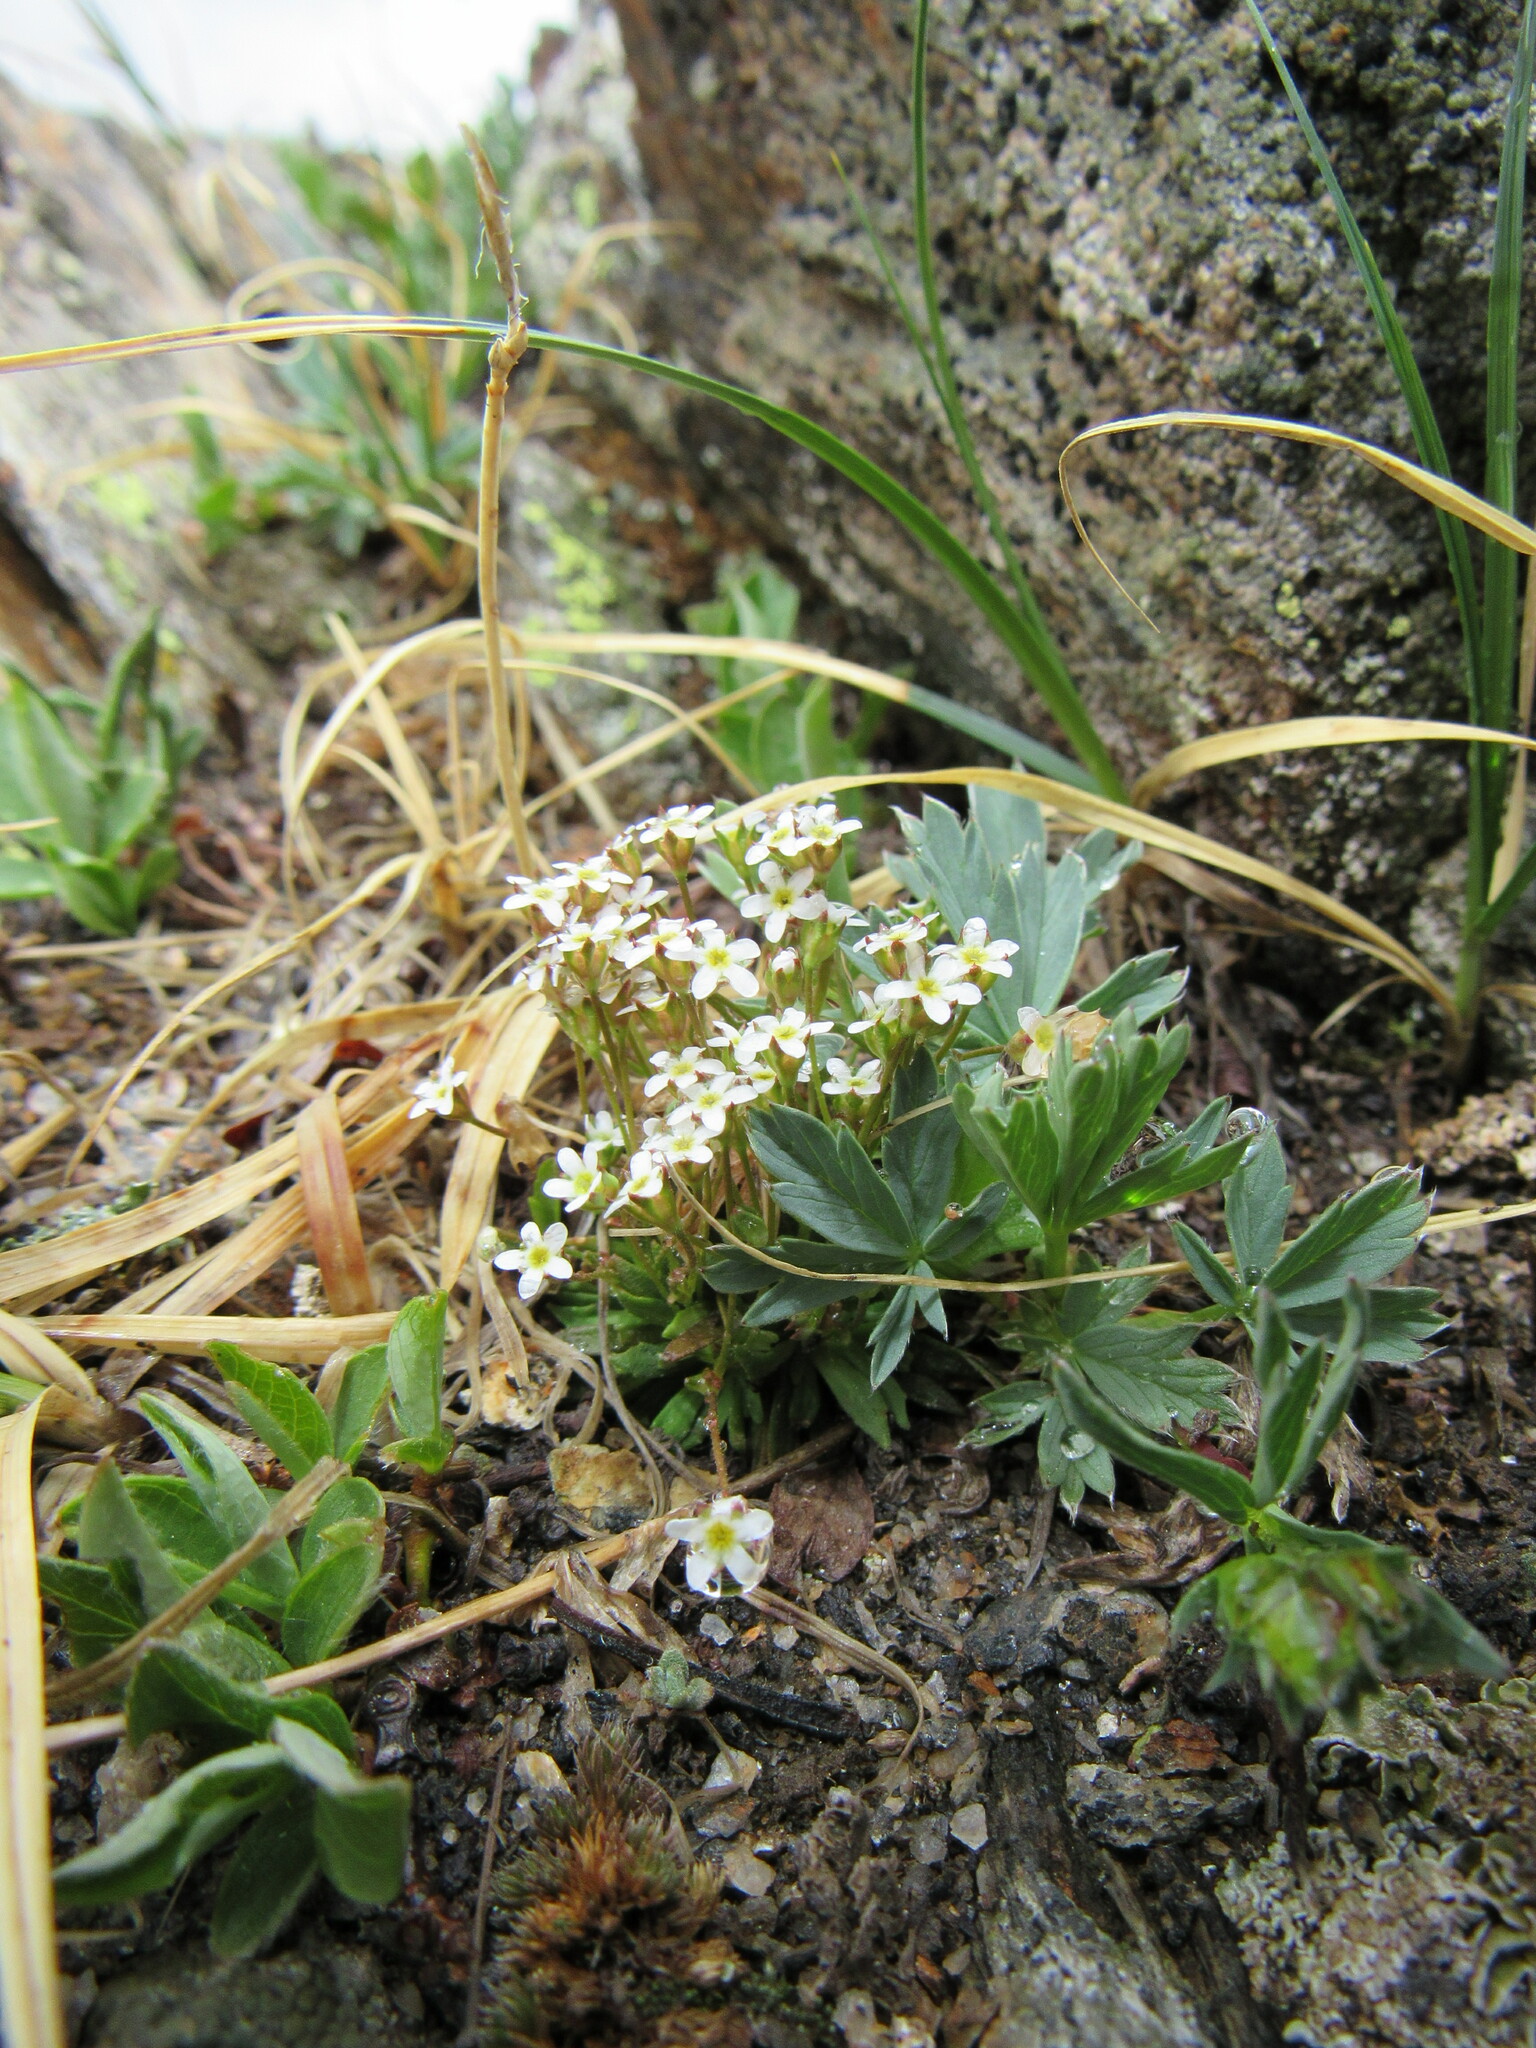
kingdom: Plantae
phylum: Tracheophyta
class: Magnoliopsida
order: Ericales
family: Primulaceae
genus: Androsace
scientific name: Androsace septentrionalis
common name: Hairy northern fairy-candelabra
